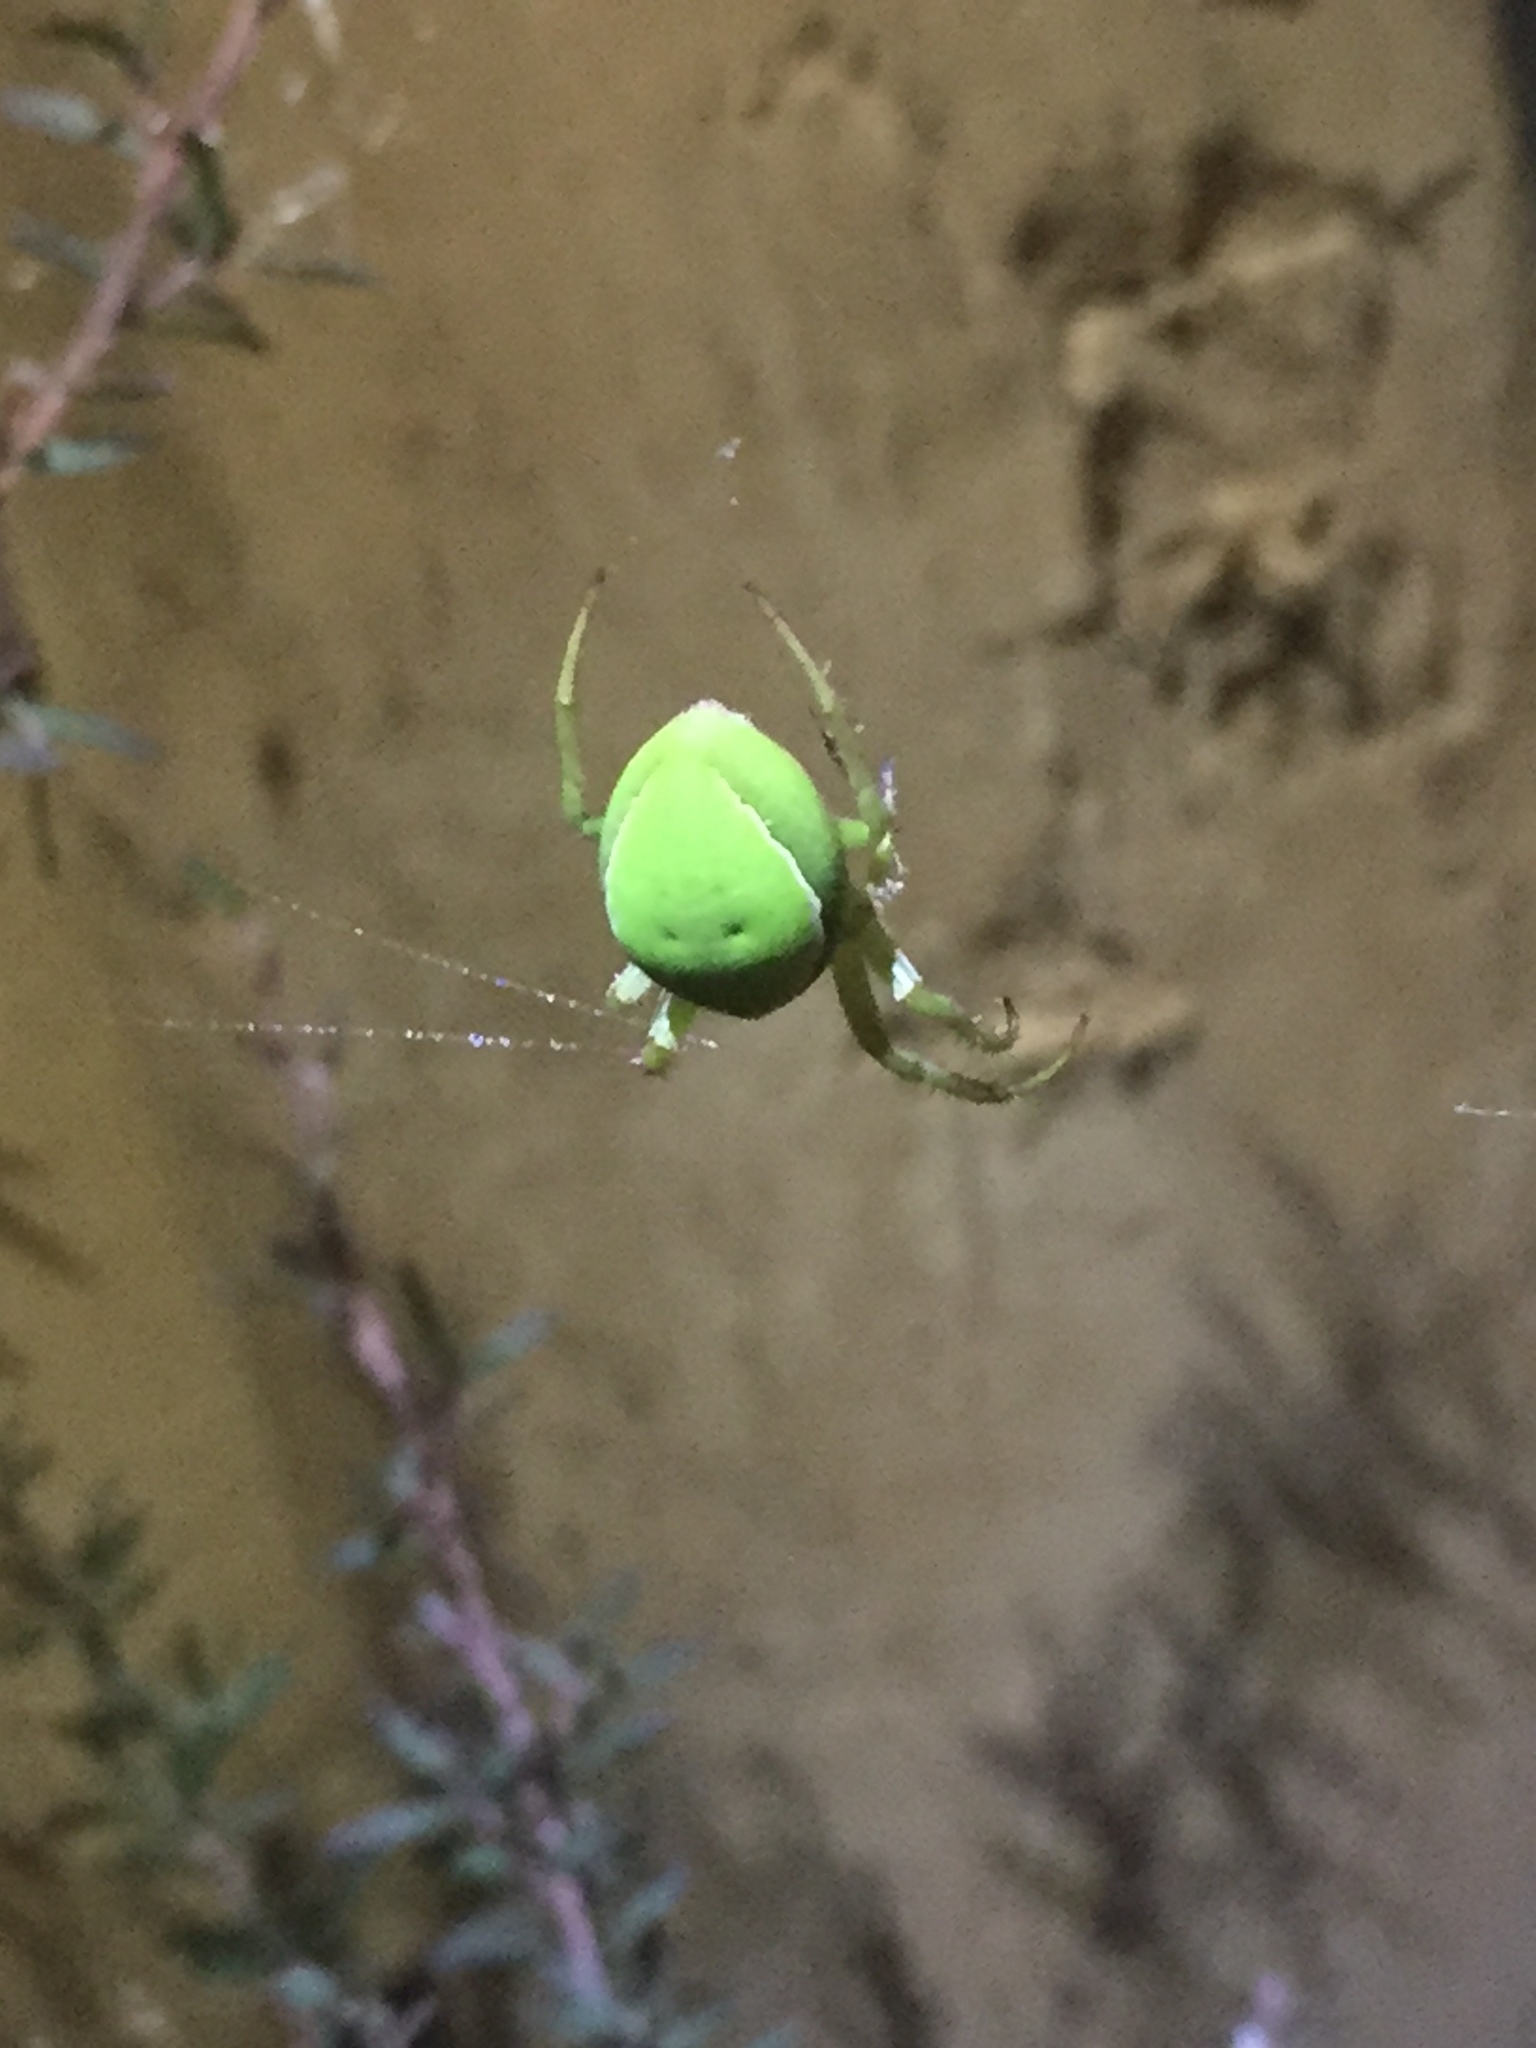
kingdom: Animalia
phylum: Arthropoda
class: Arachnida
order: Araneae
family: Araneidae
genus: Colaranea
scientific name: Colaranea viriditas
